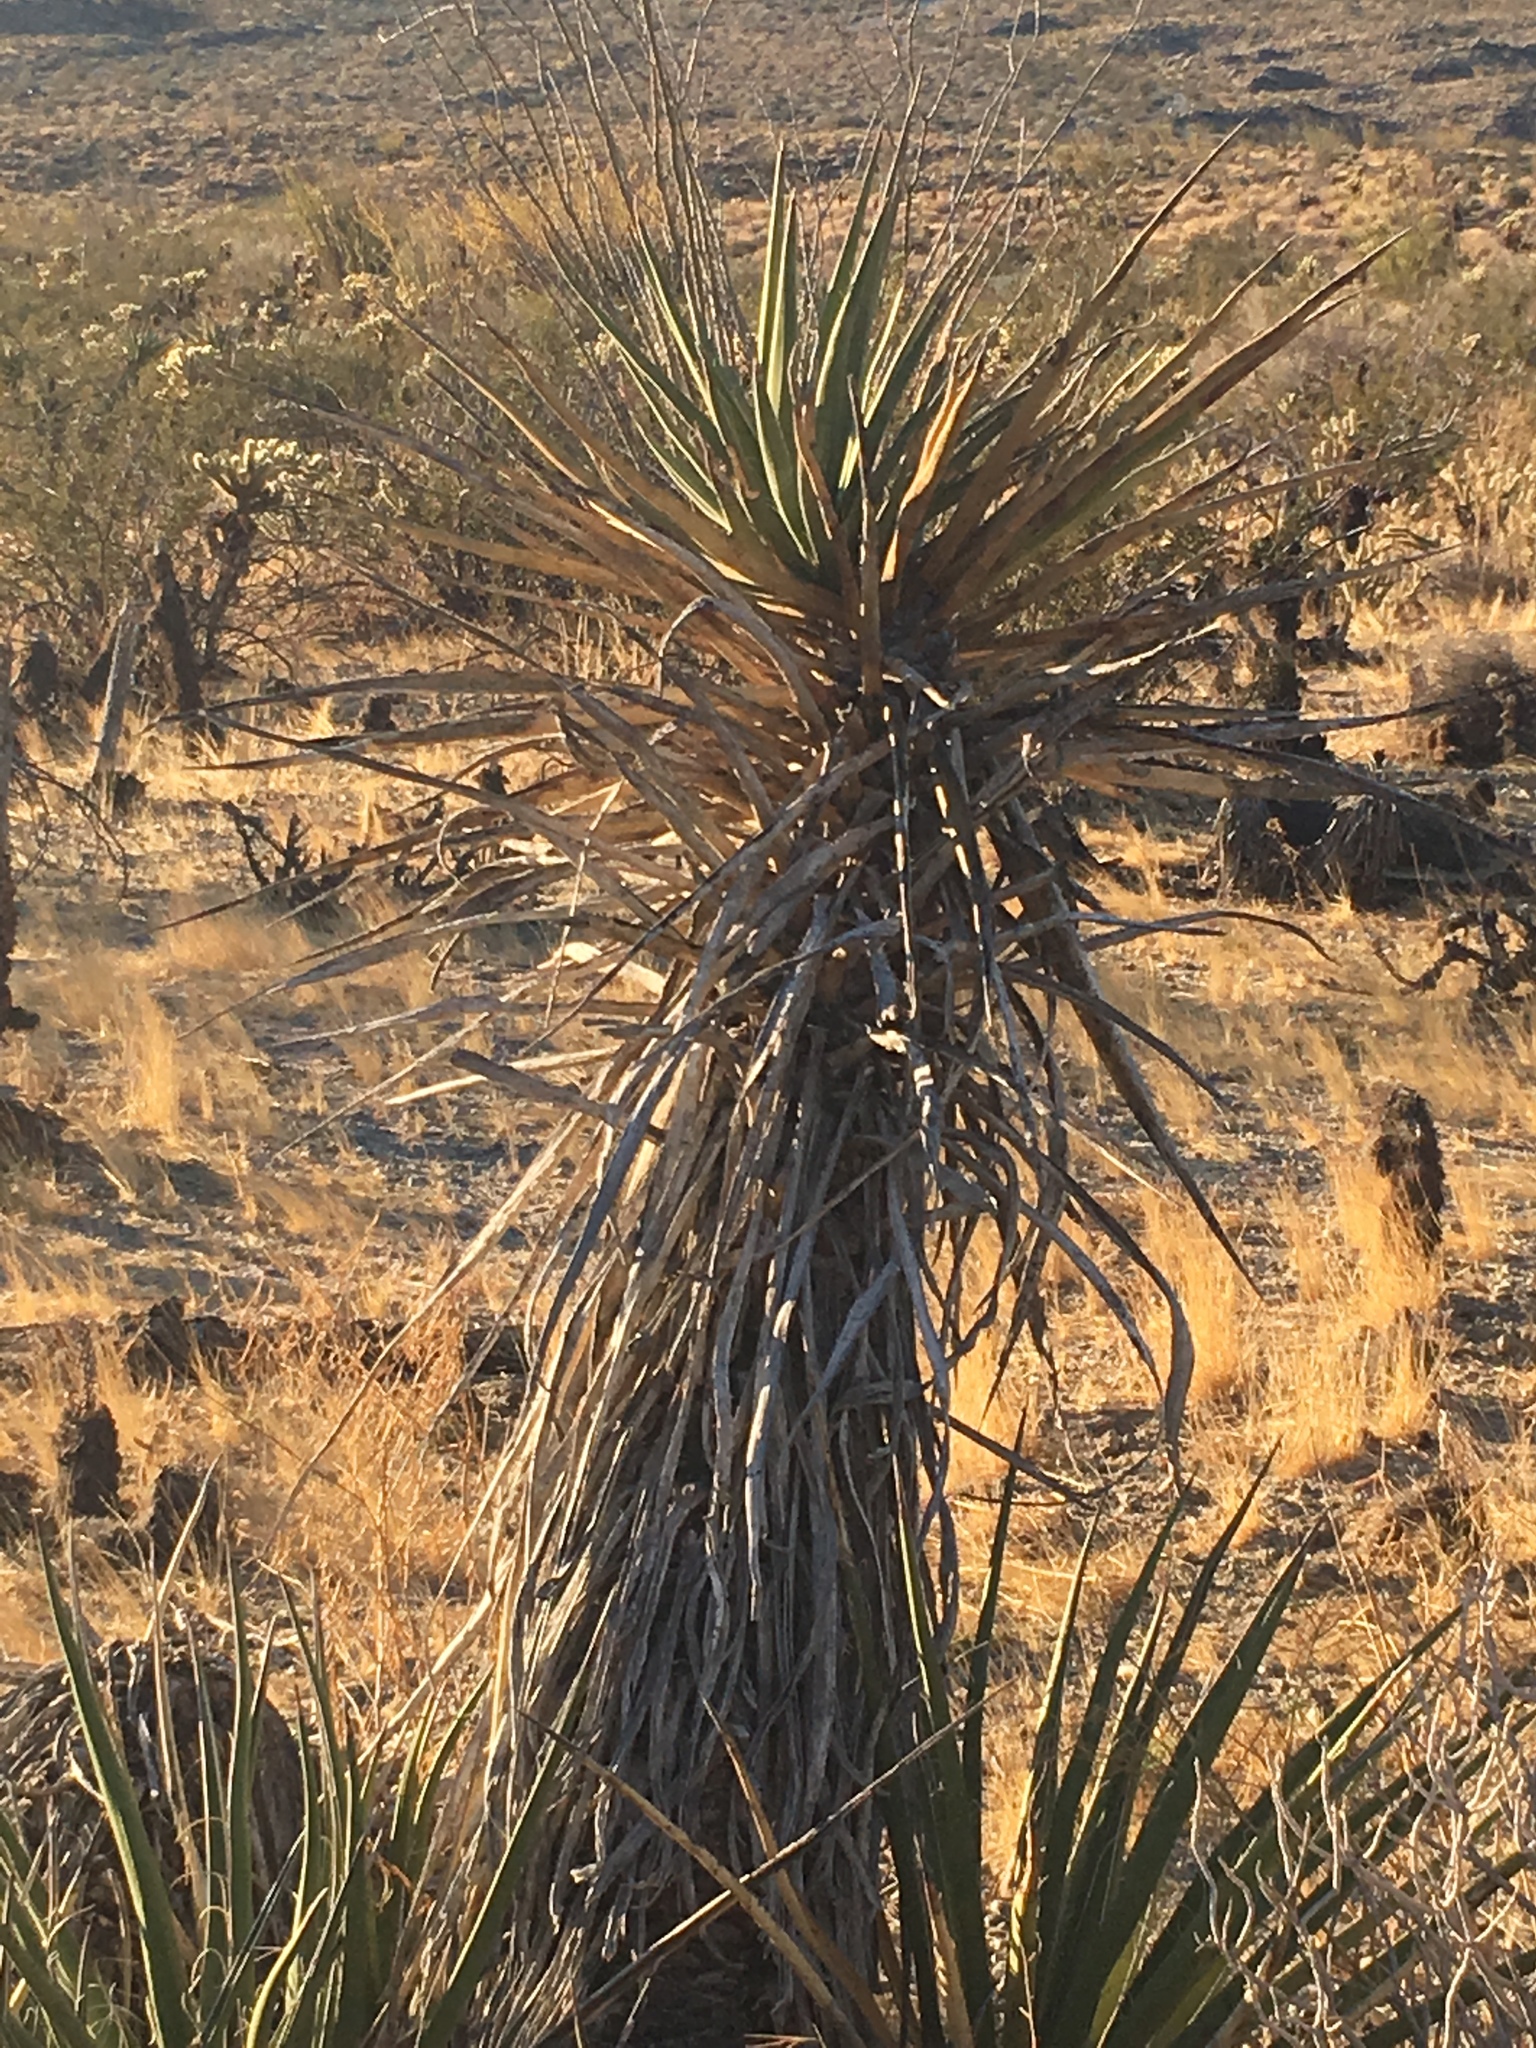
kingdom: Plantae
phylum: Tracheophyta
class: Liliopsida
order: Asparagales
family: Asparagaceae
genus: Yucca
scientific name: Yucca schidigera
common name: Mojave yucca
